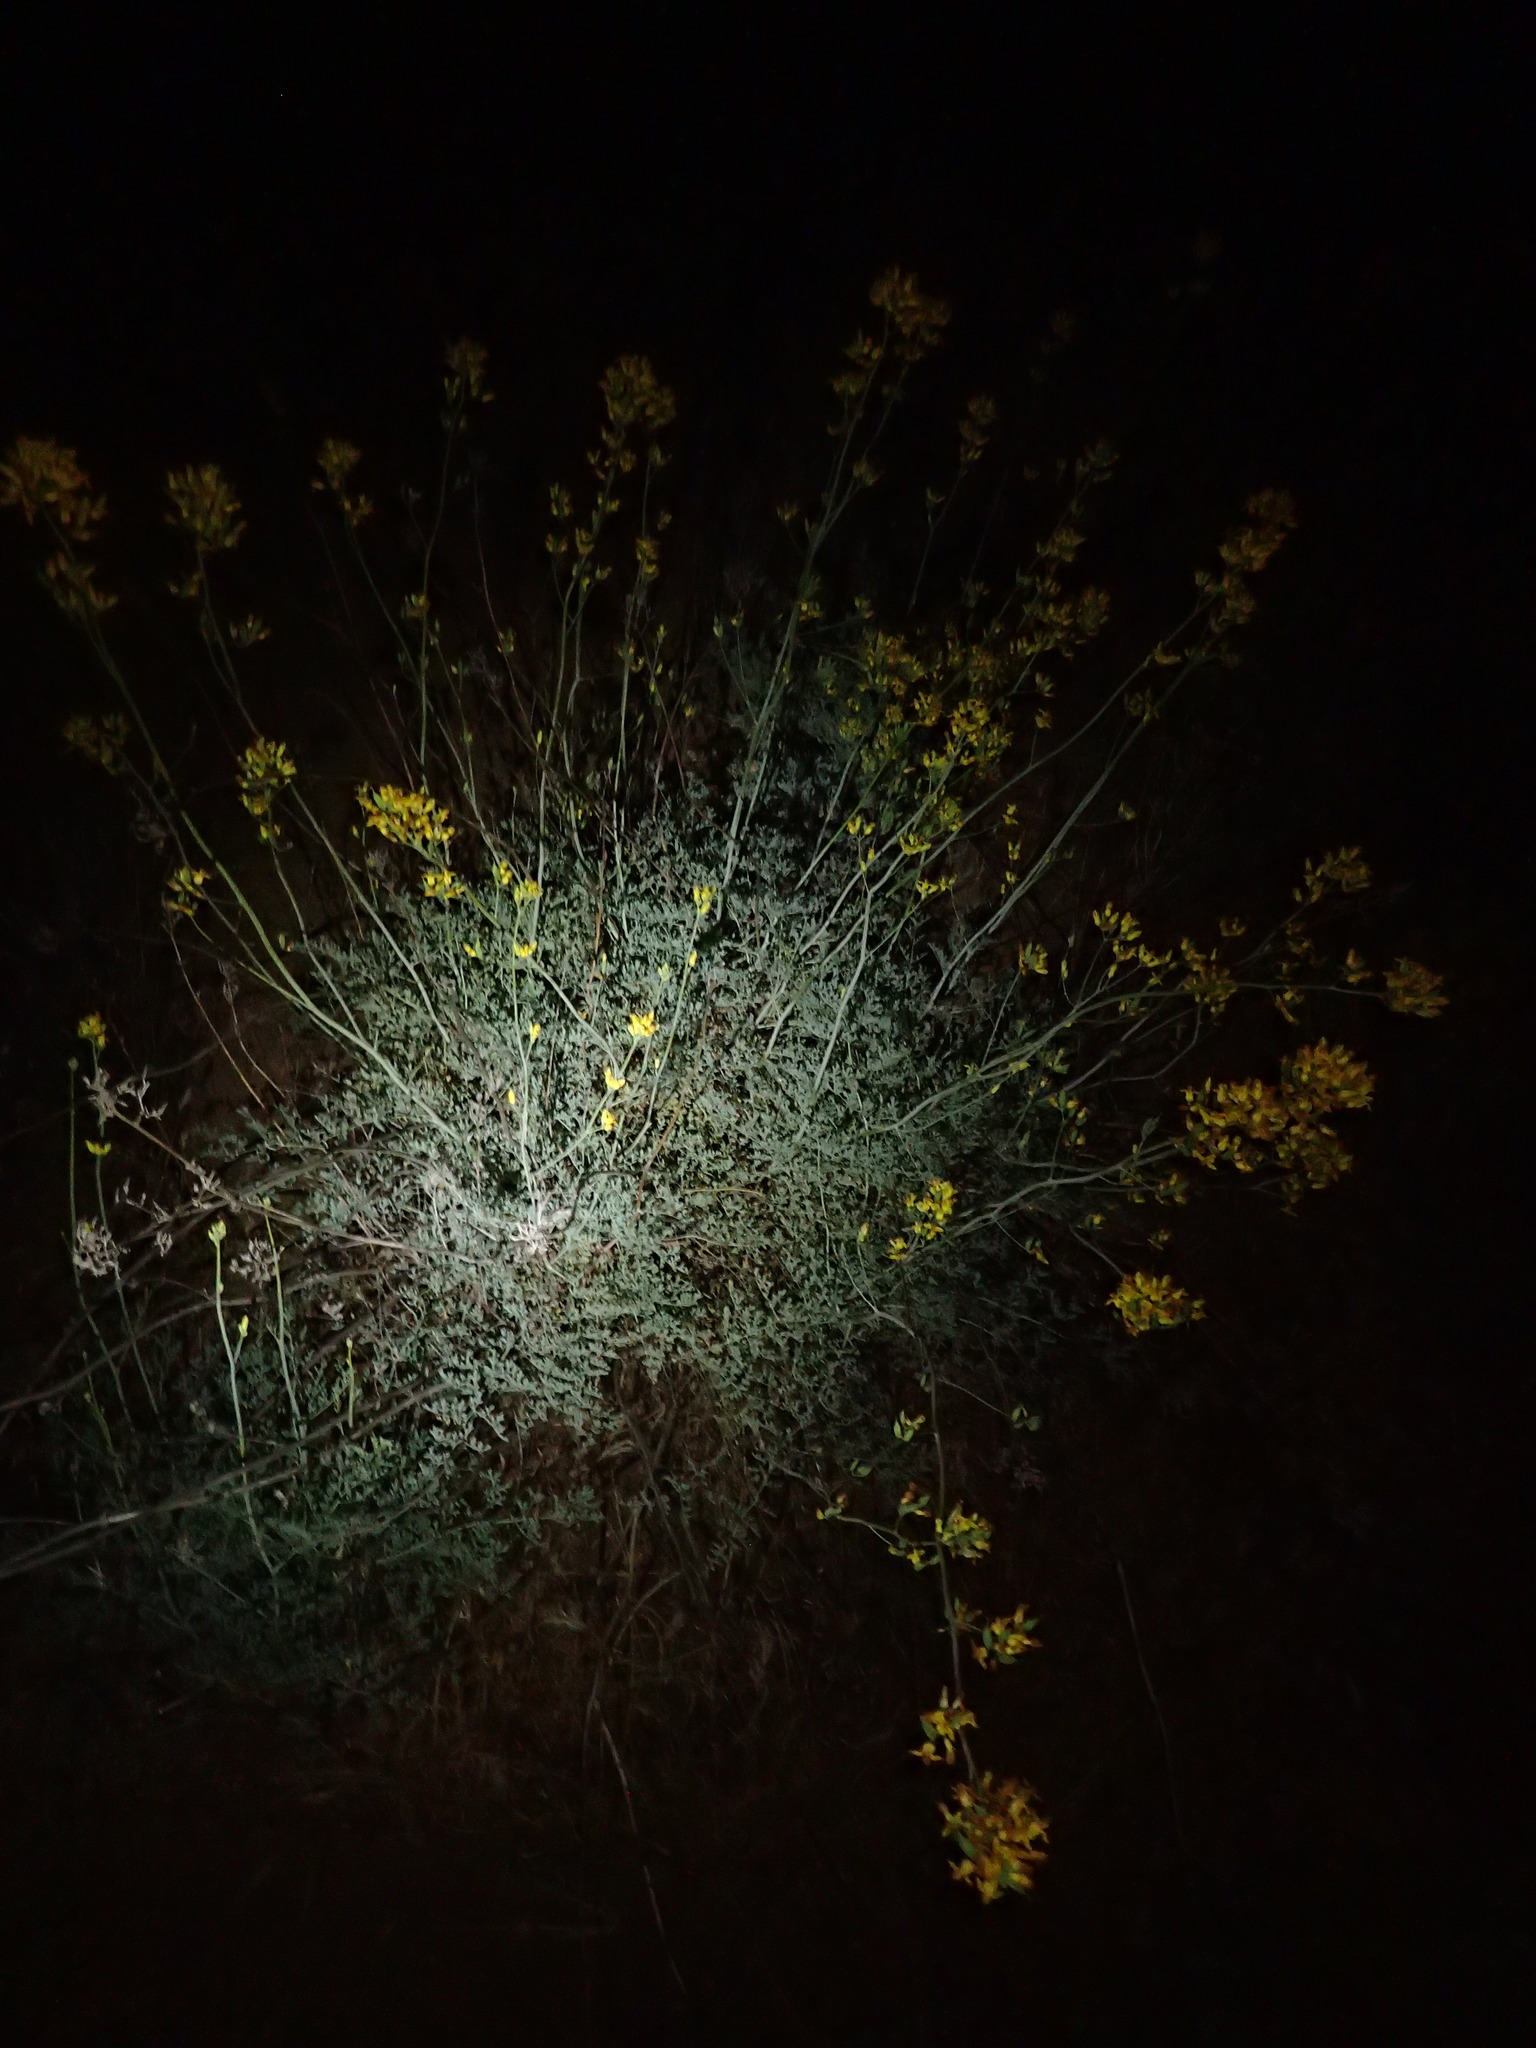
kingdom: Plantae
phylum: Tracheophyta
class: Magnoliopsida
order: Ranunculales
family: Papaveraceae
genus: Ehrendorferia
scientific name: Ehrendorferia chrysantha
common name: Golden eardrops
